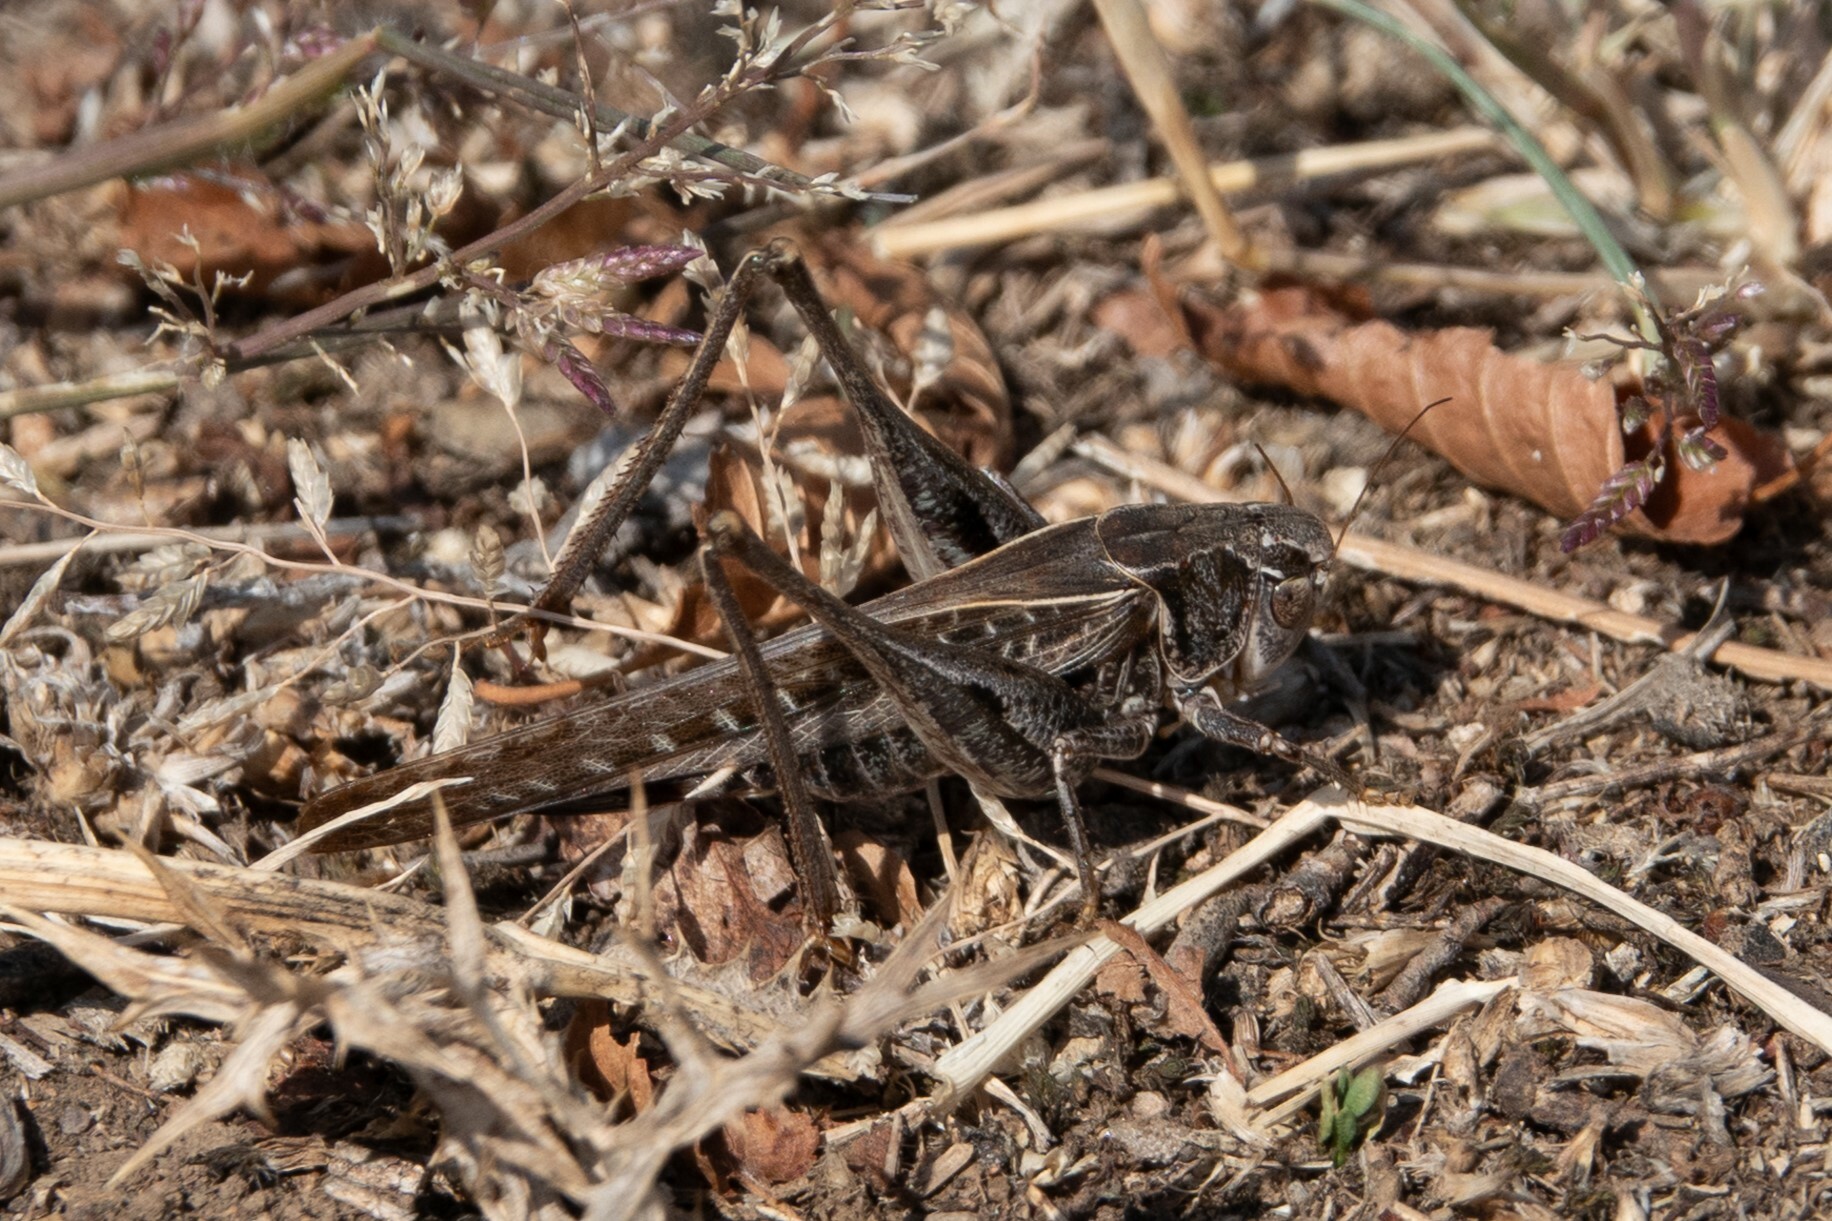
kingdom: Animalia
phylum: Arthropoda
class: Insecta
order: Orthoptera
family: Tettigoniidae
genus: Platycleis
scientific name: Platycleis affinis
